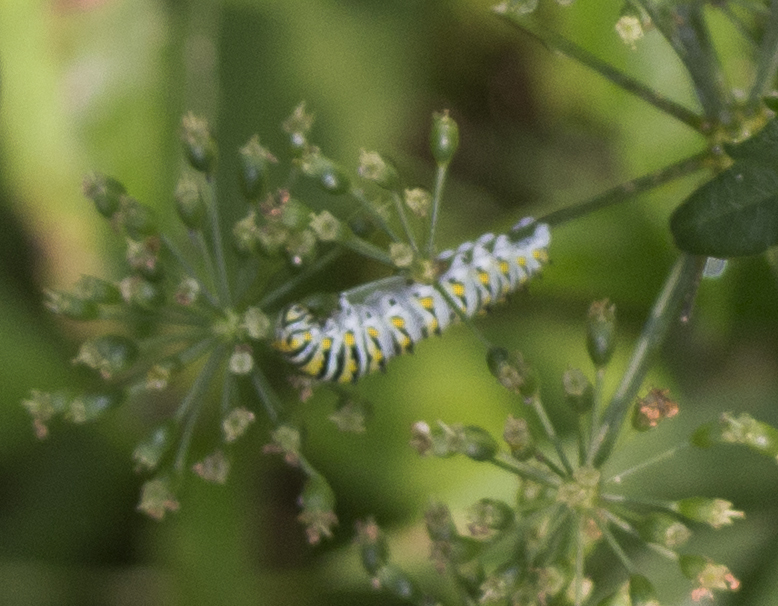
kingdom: Animalia
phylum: Arthropoda
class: Insecta
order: Lepidoptera
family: Papilionidae
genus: Papilio
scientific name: Papilio polyxenes
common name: Black swallowtail
